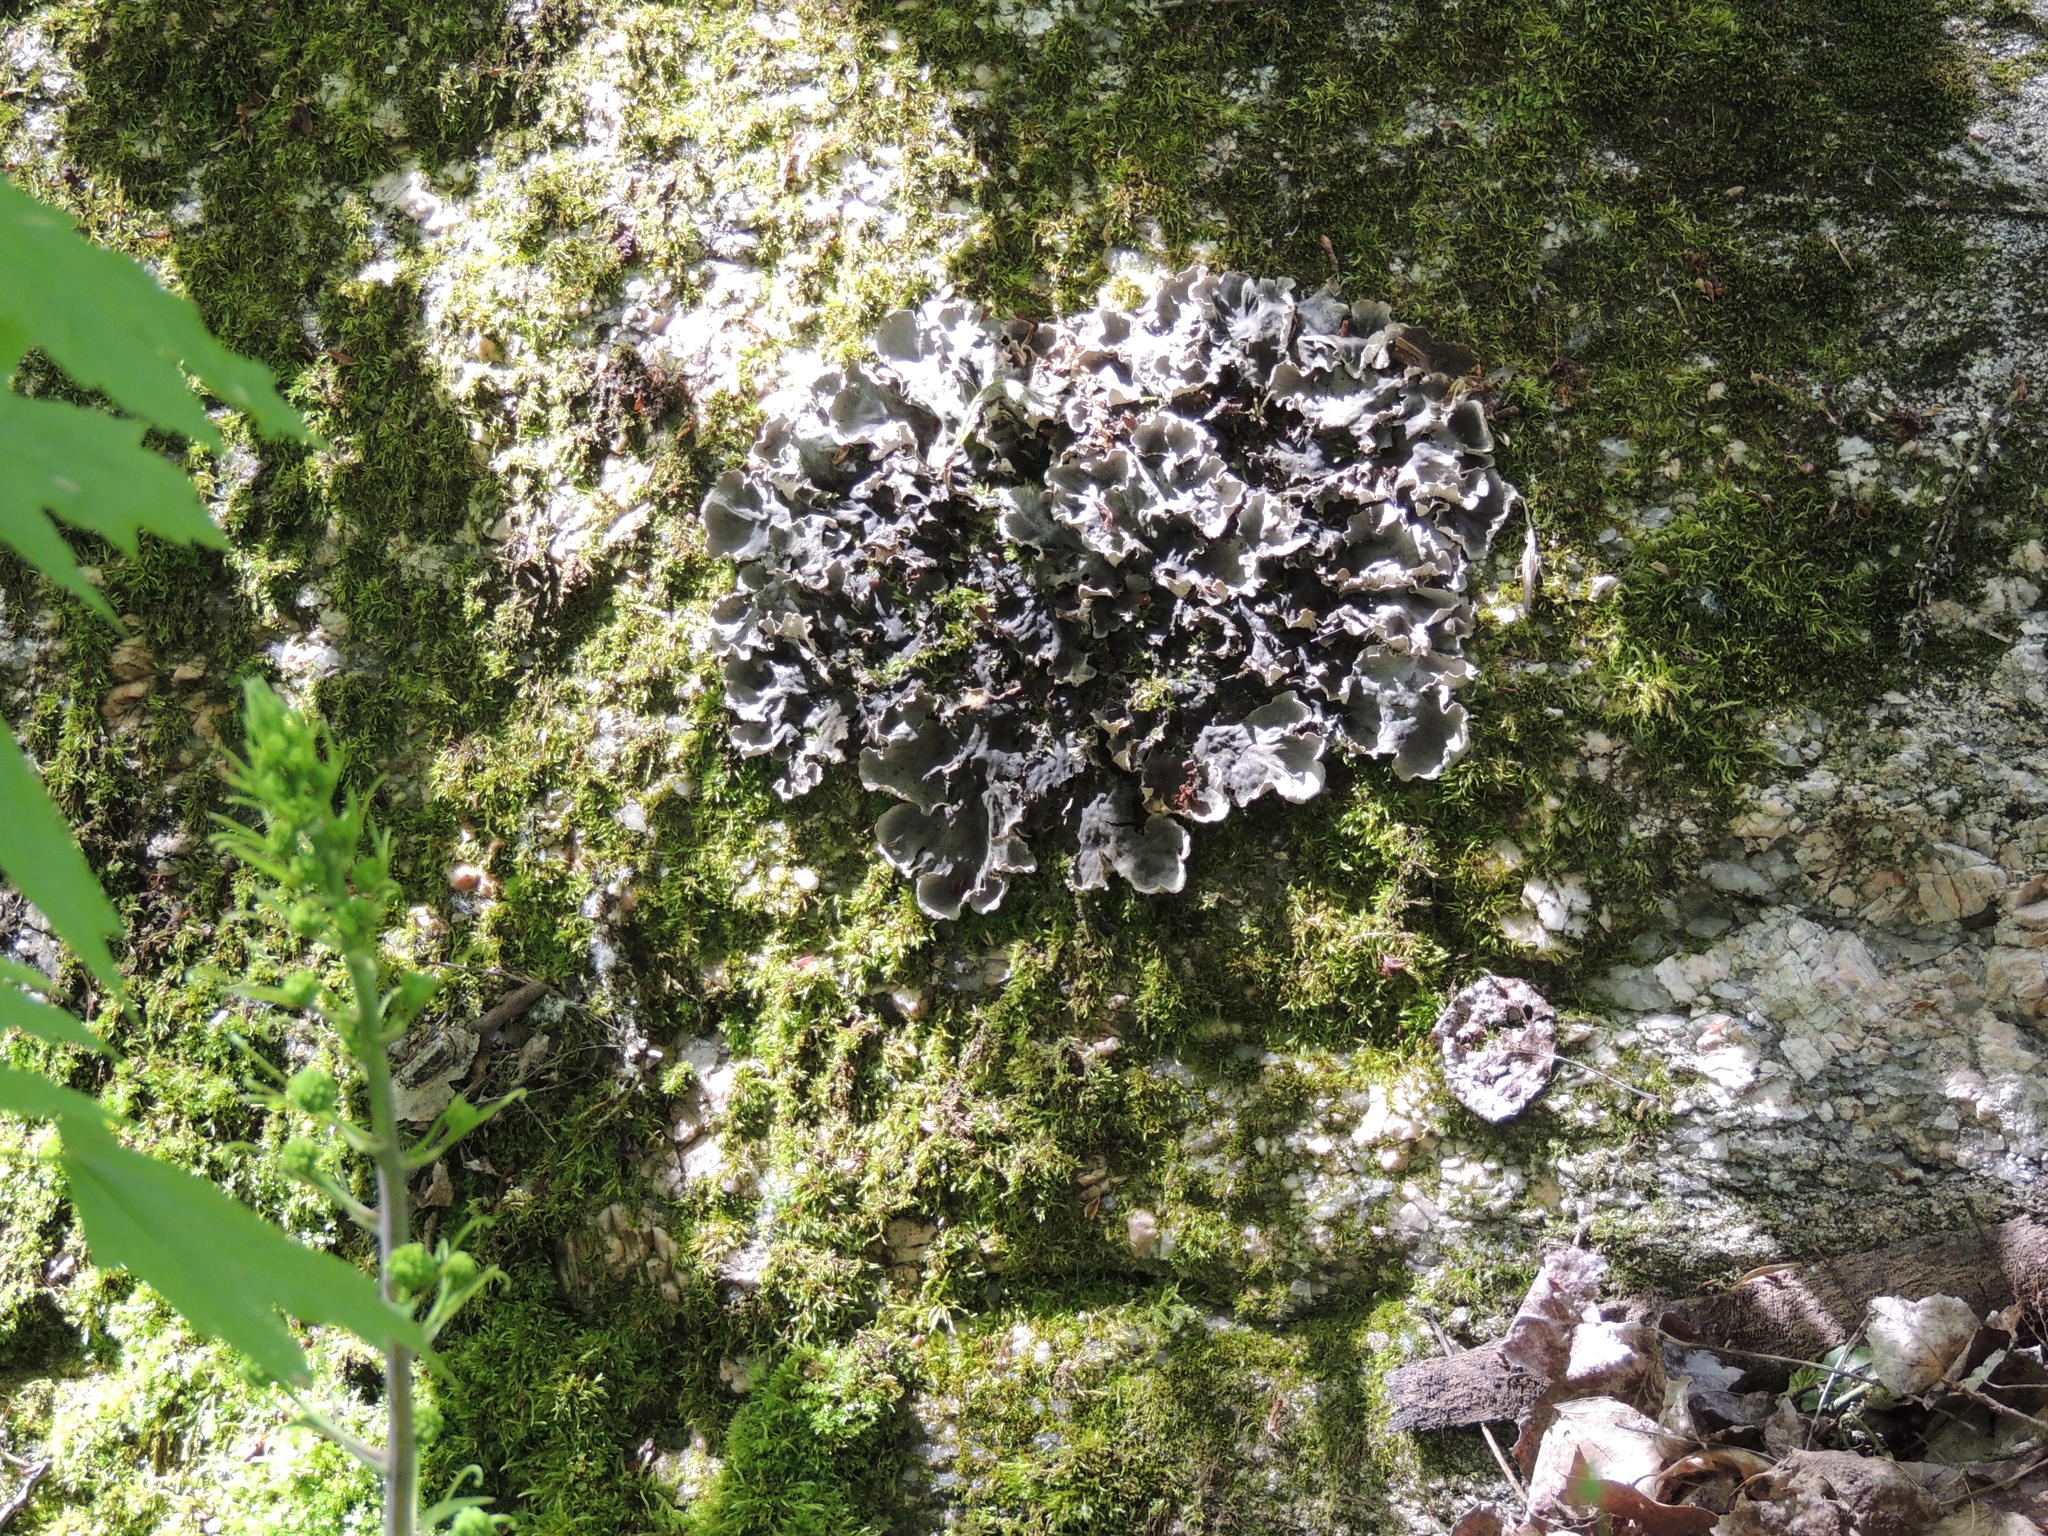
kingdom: Fungi
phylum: Ascomycota
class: Lecanoromycetes
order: Peltigerales
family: Peltigeraceae
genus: Peltigera
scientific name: Peltigera canina
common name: Dog pelt lichen
